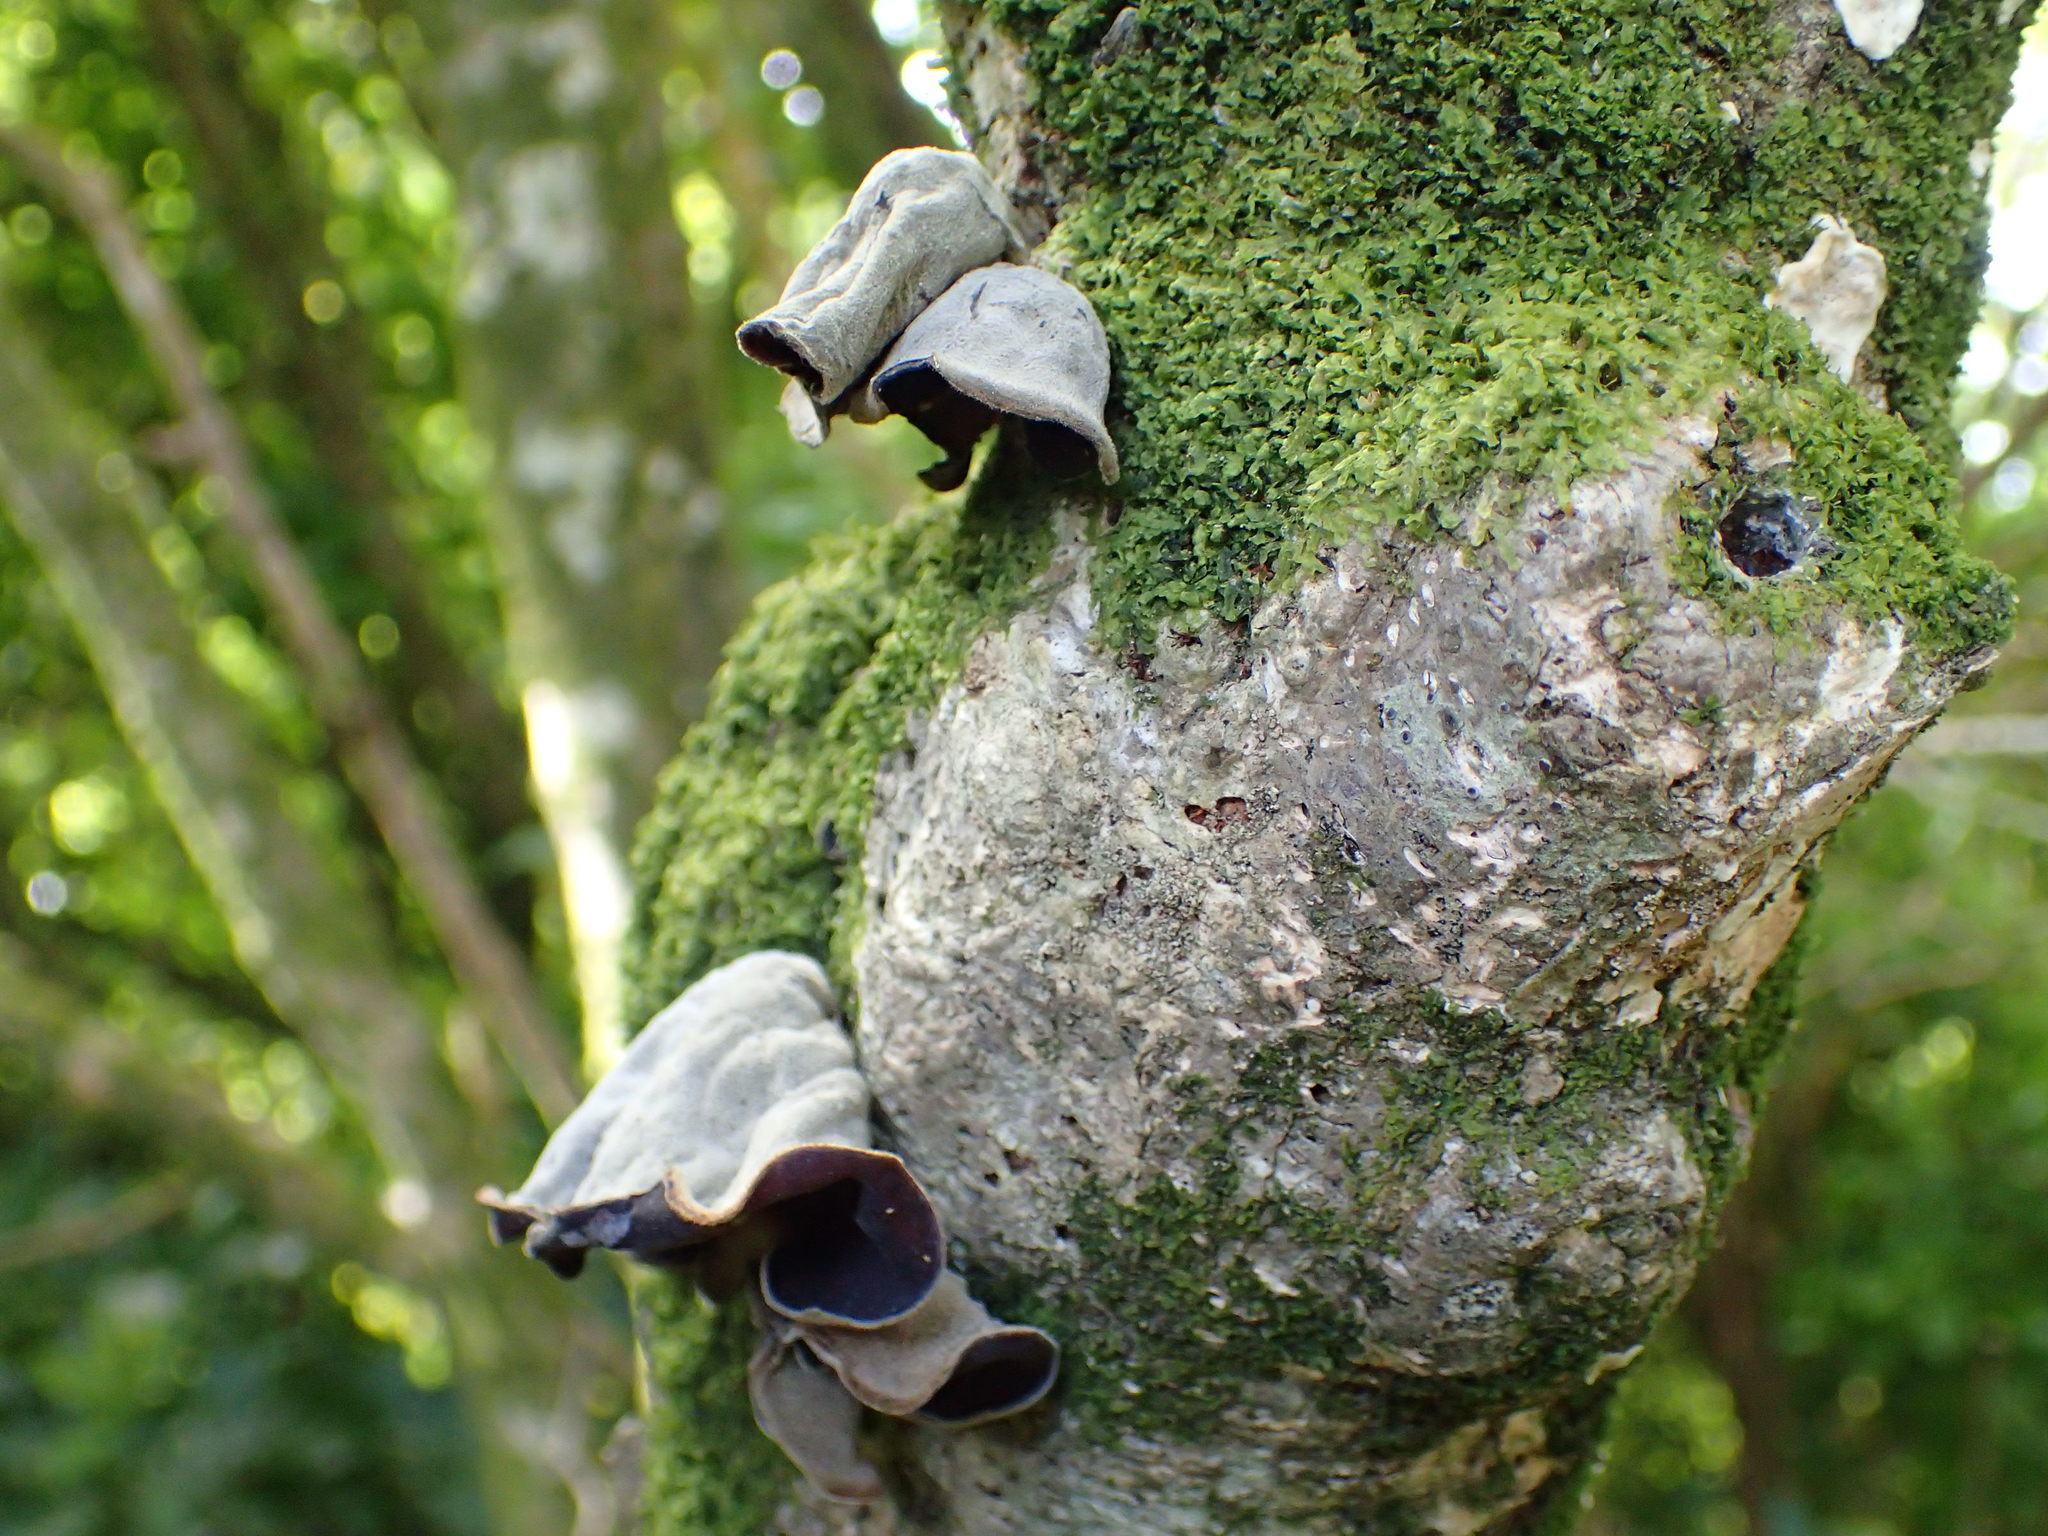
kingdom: Fungi
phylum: Basidiomycota
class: Agaricomycetes
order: Auriculariales
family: Auriculariaceae
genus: Auricularia
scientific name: Auricularia cornea
